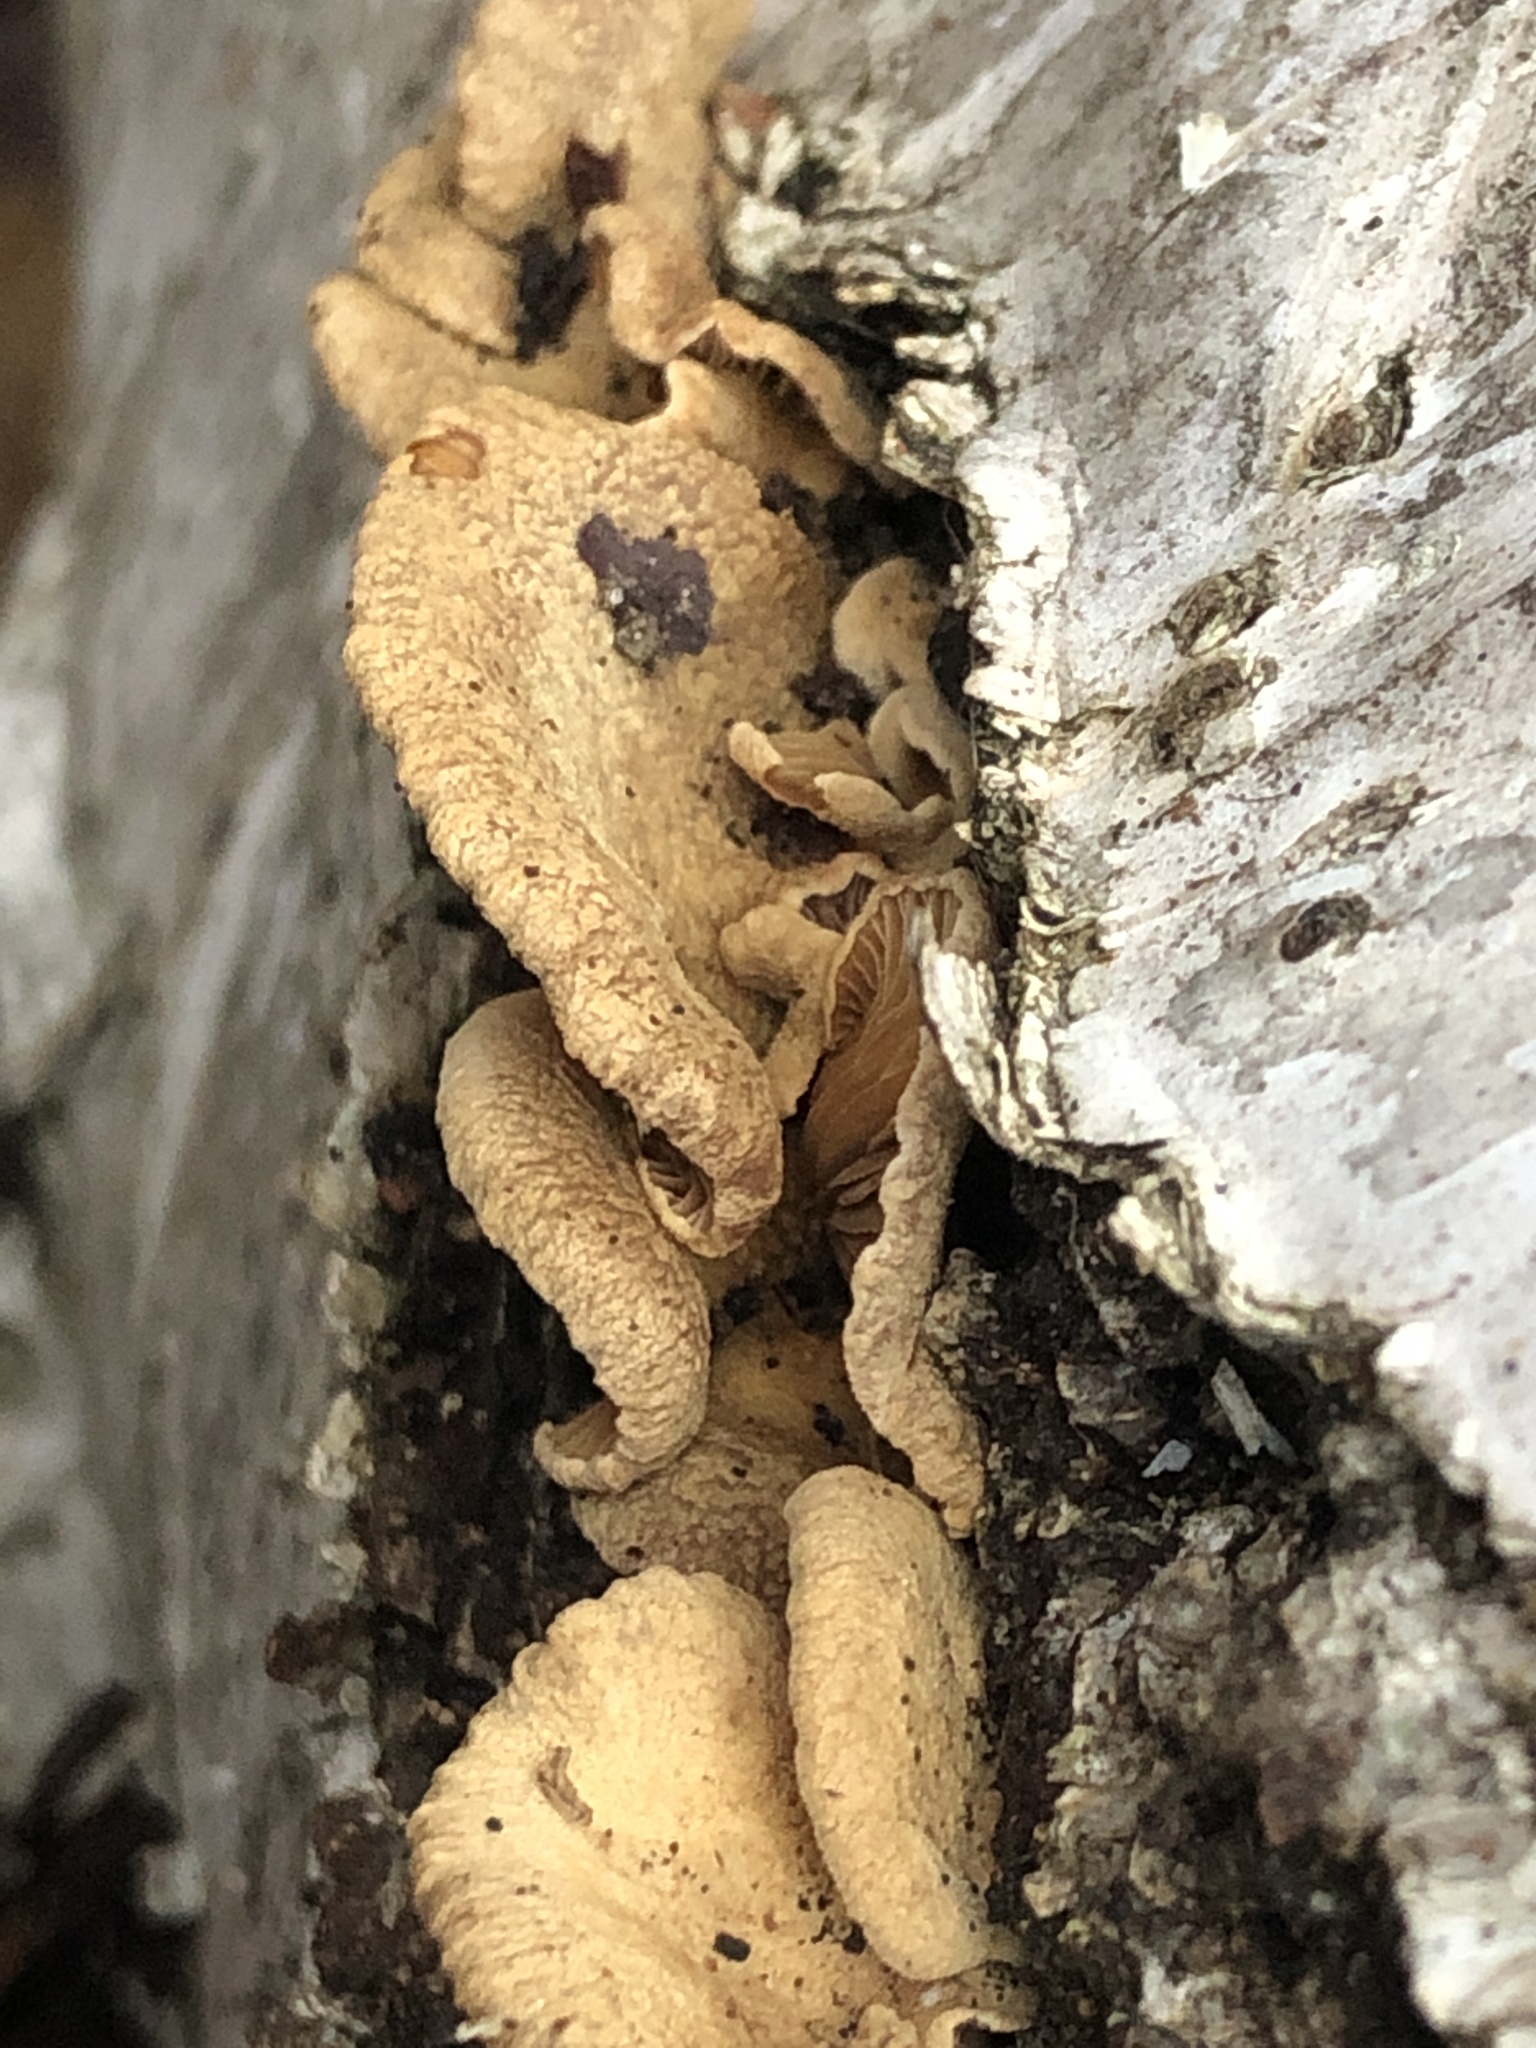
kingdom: Fungi
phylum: Basidiomycota
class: Agaricomycetes
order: Agaricales
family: Mycenaceae
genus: Panellus
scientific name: Panellus stipticus
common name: Bitter oysterling
